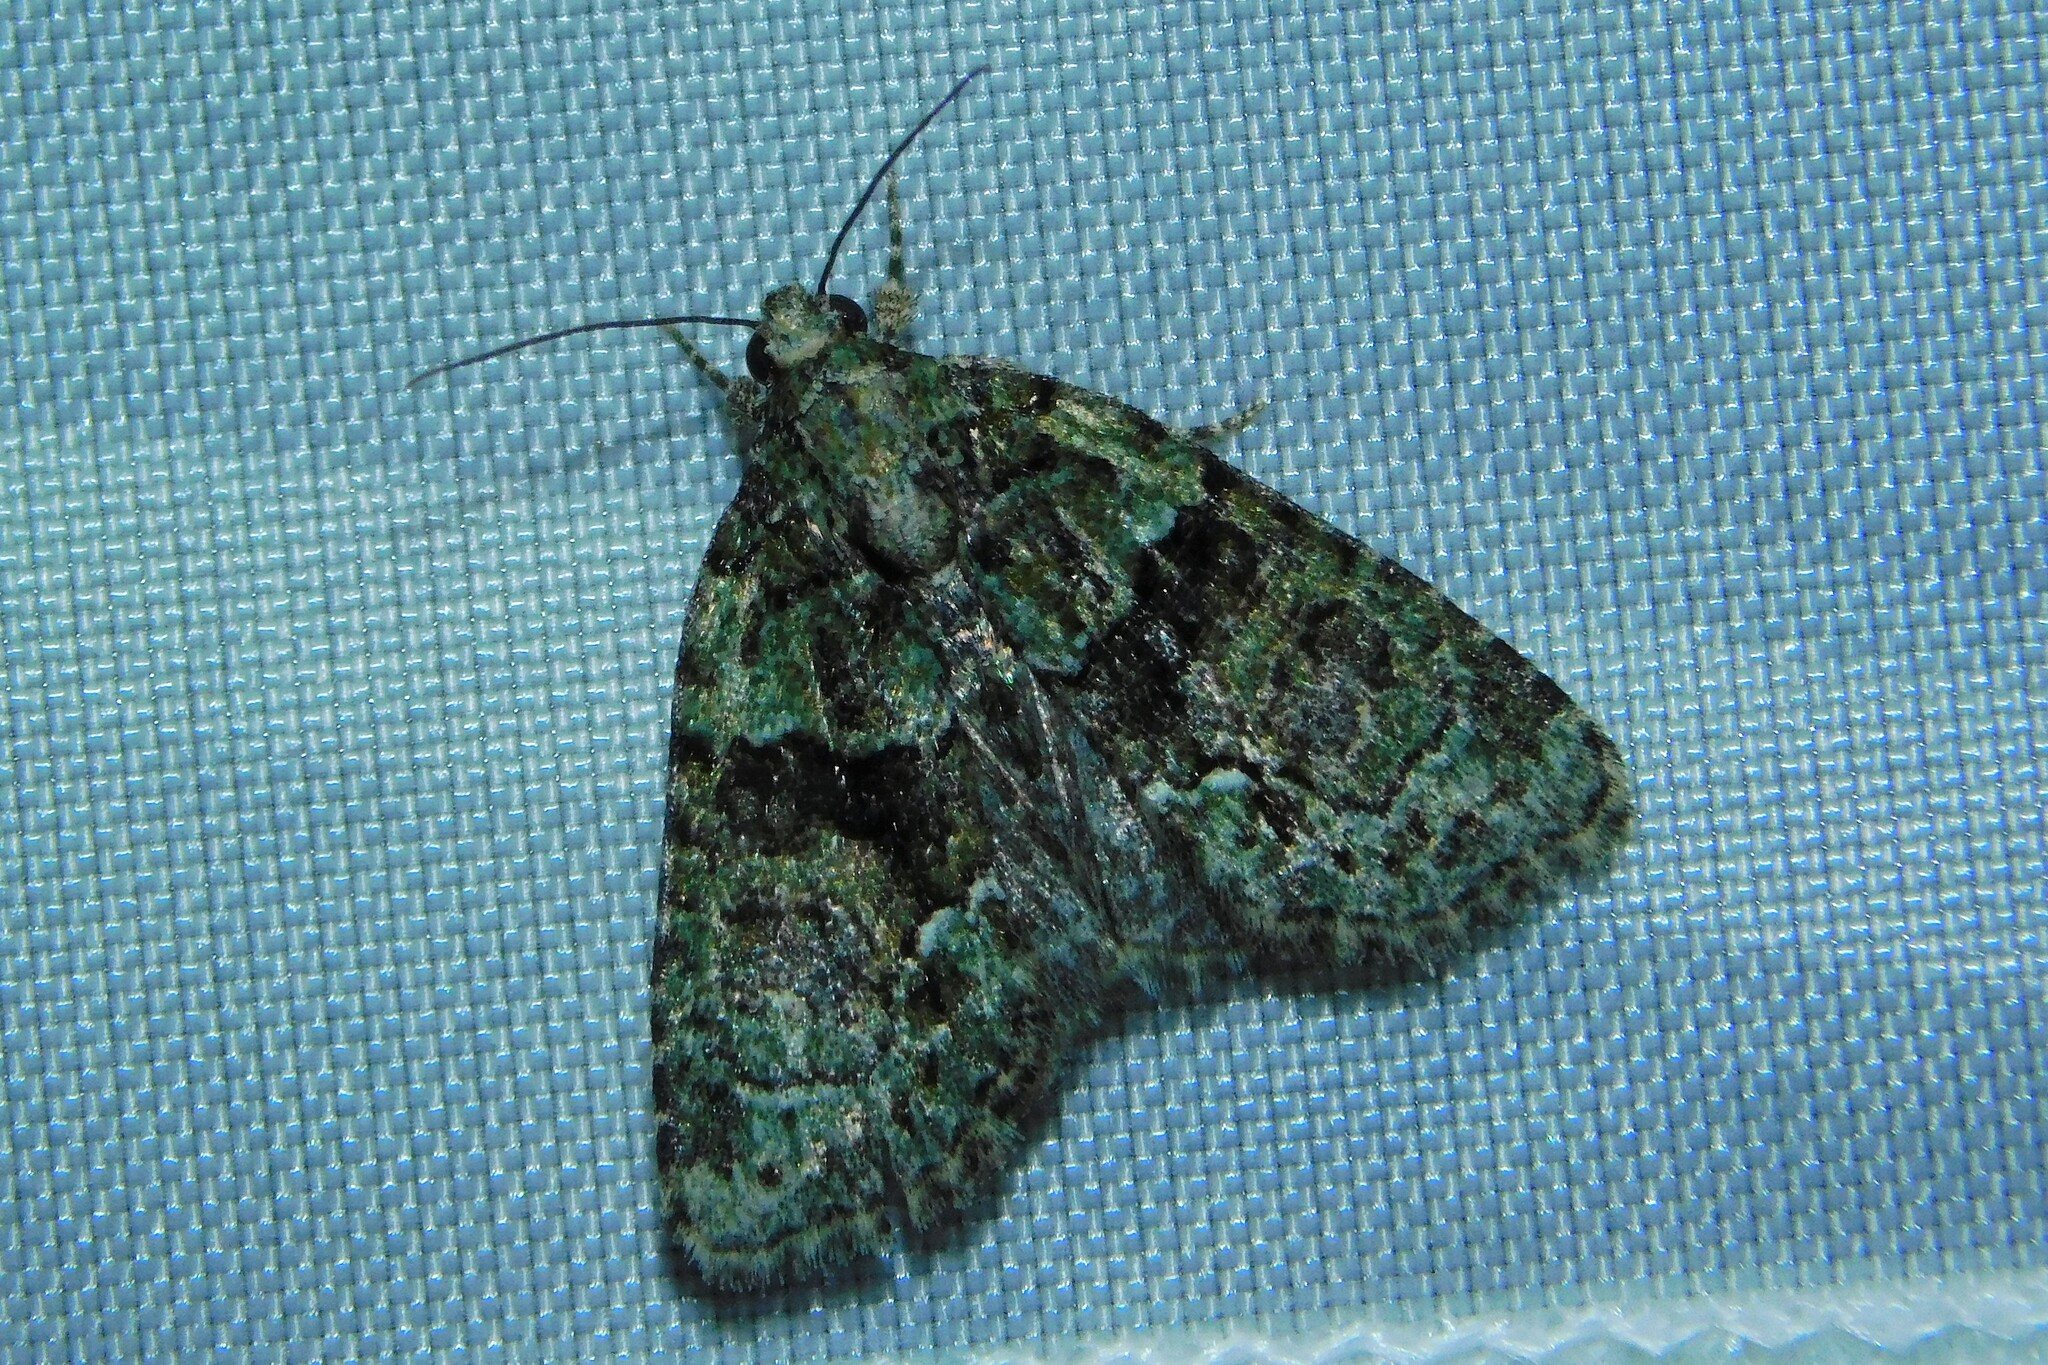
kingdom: Animalia
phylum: Arthropoda
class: Insecta
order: Lepidoptera
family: Noctuidae
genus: Cryphia
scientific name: Cryphia algae
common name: Tree-lichen beauty
